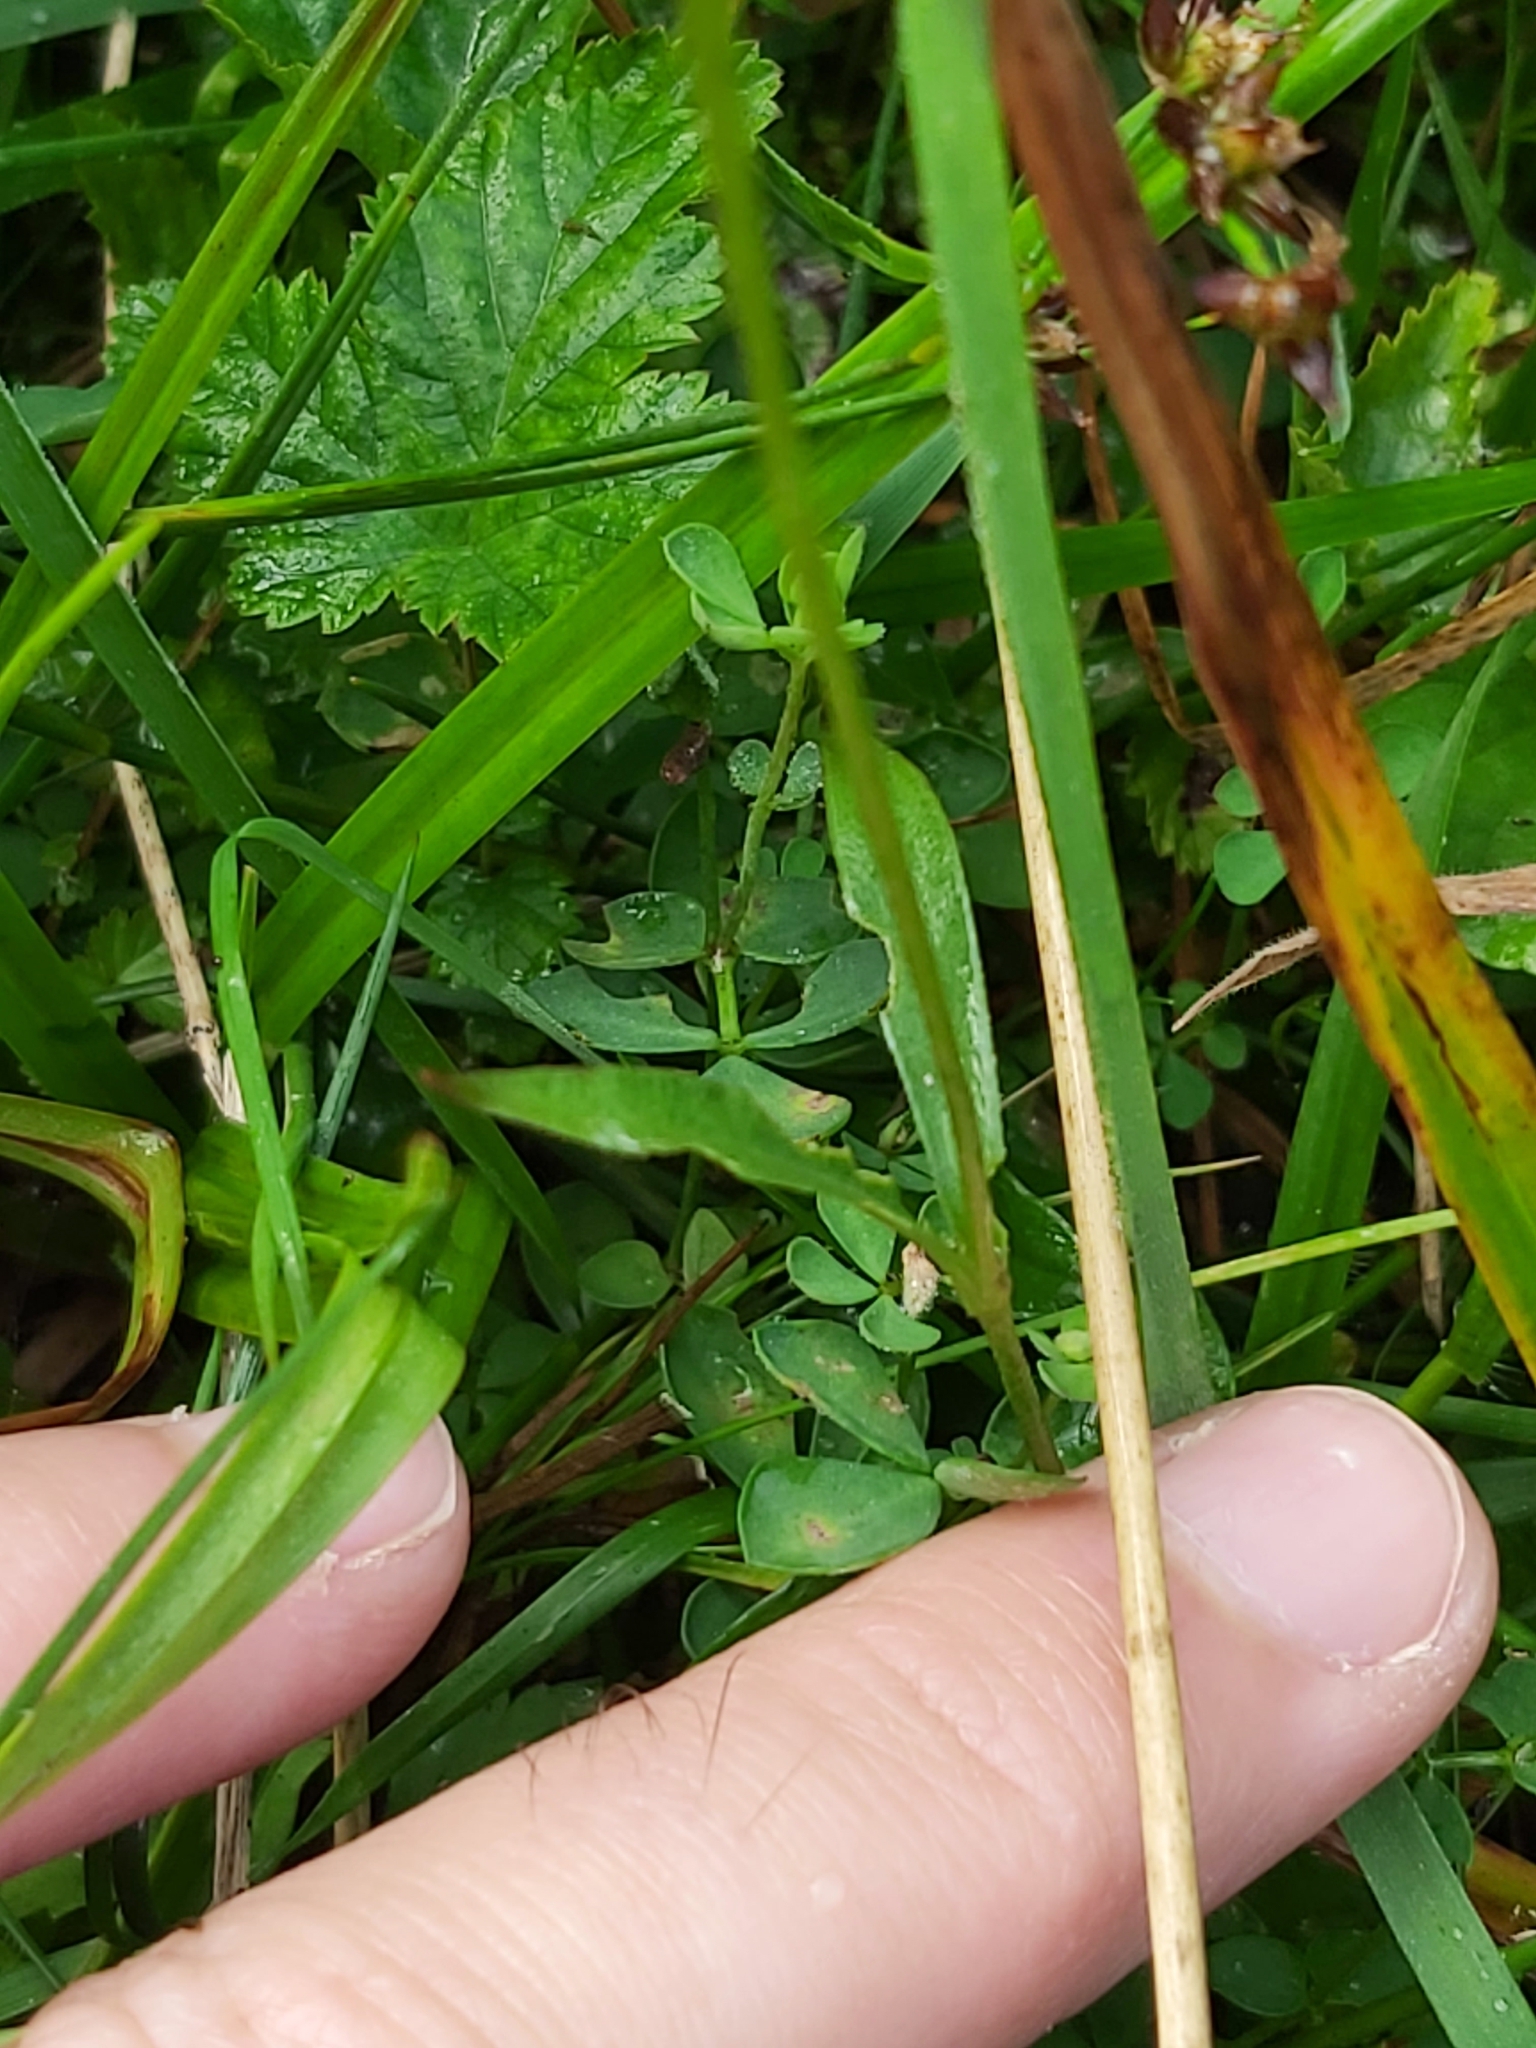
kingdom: Plantae
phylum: Tracheophyta
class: Magnoliopsida
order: Caryophyllales
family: Caryophyllaceae
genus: Silene
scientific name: Silene flos-cuculi
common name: Ragged-robin
